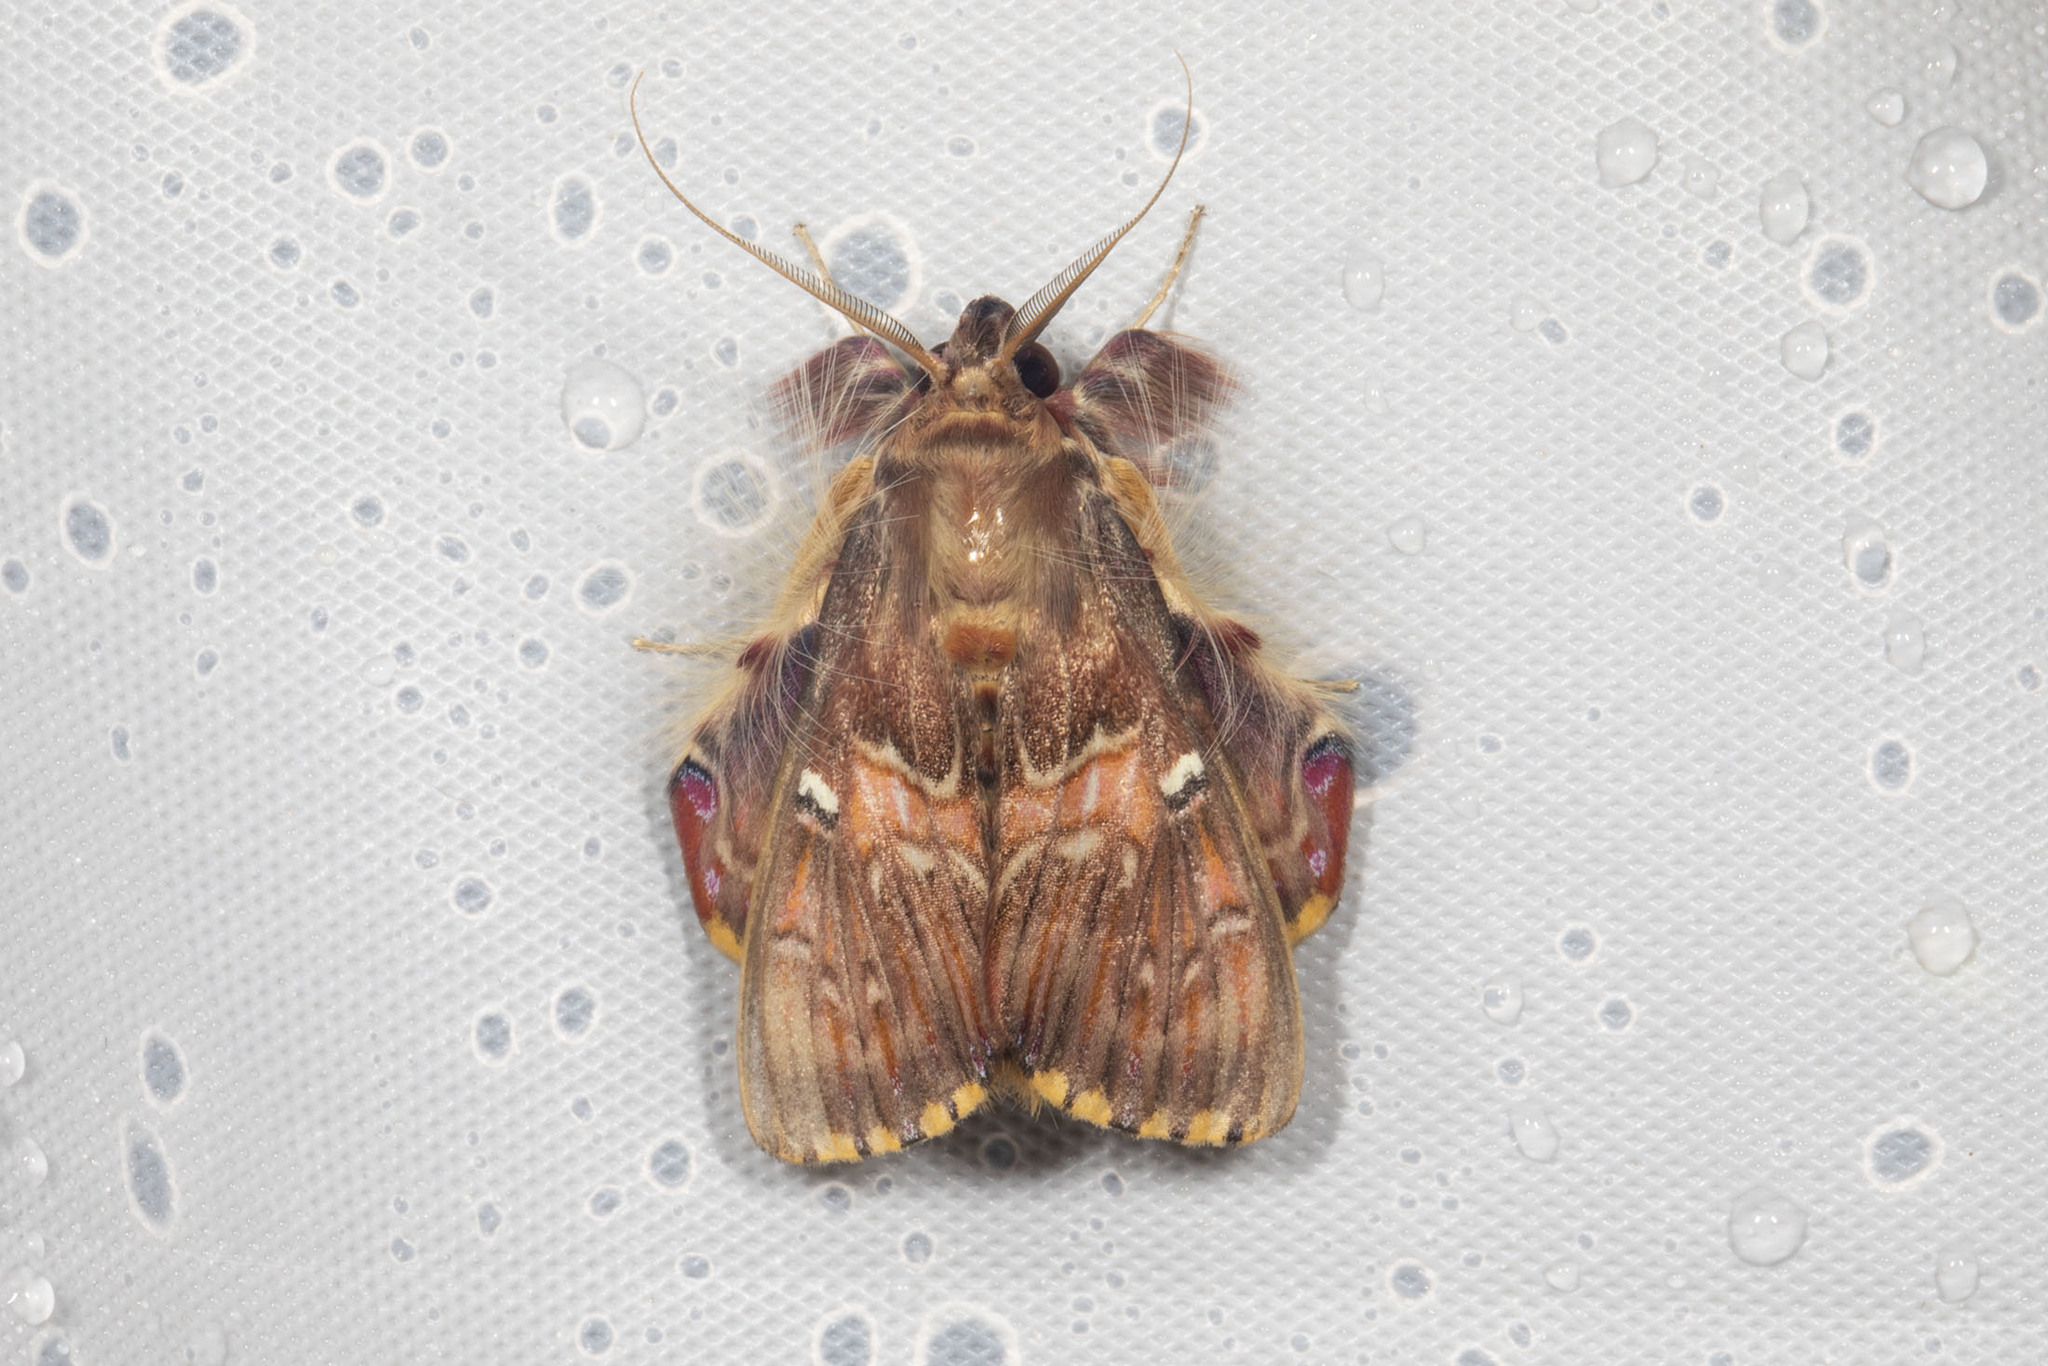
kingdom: Animalia
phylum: Arthropoda
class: Insecta
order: Lepidoptera
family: Erebidae
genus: Sosxetra
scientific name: Sosxetra grata
